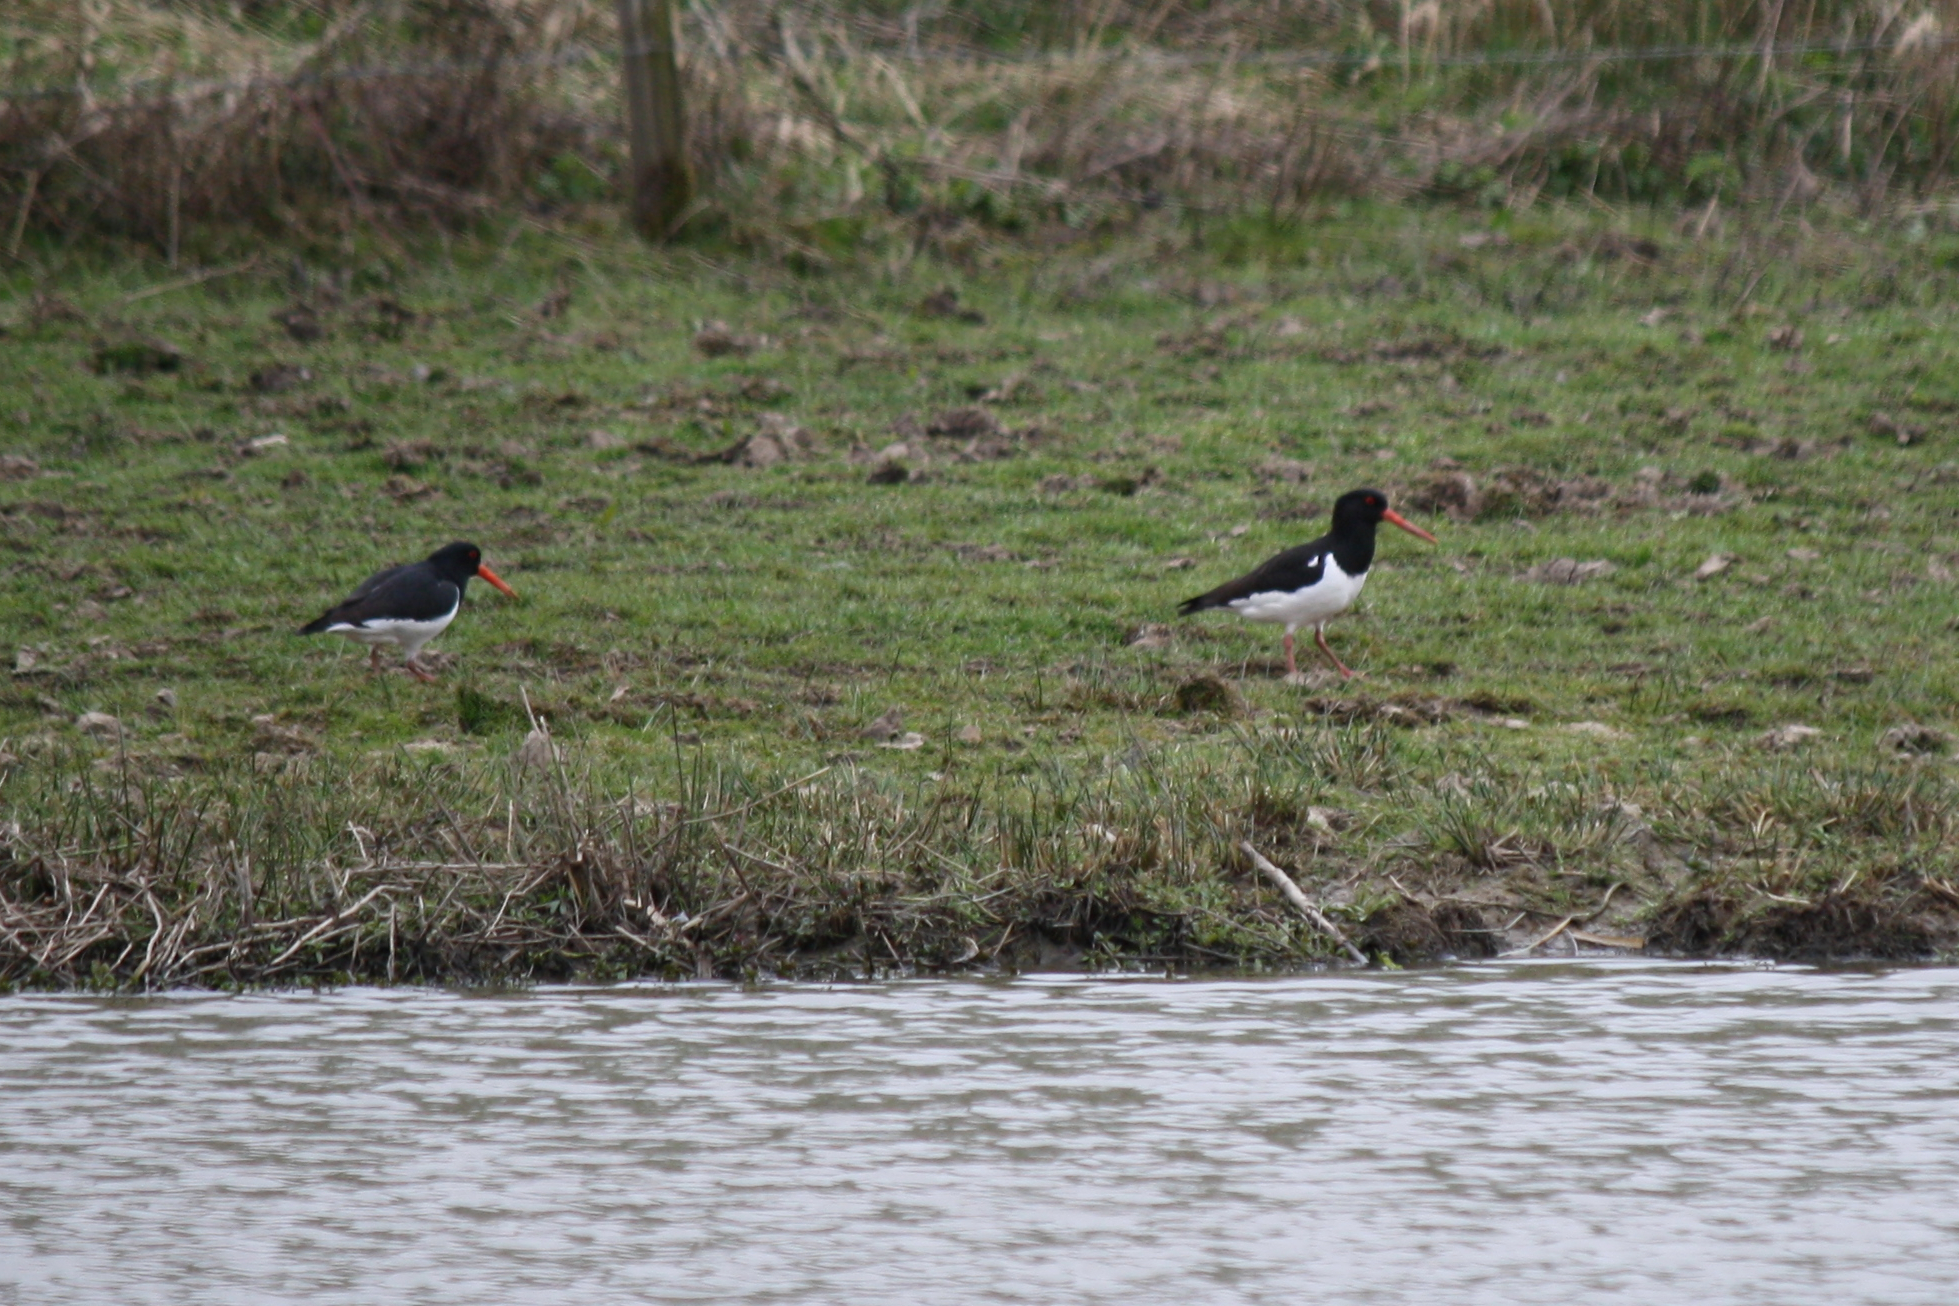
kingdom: Animalia
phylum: Chordata
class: Aves
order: Charadriiformes
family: Haematopodidae
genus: Haematopus
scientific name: Haematopus ostralegus
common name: Eurasian oystercatcher
